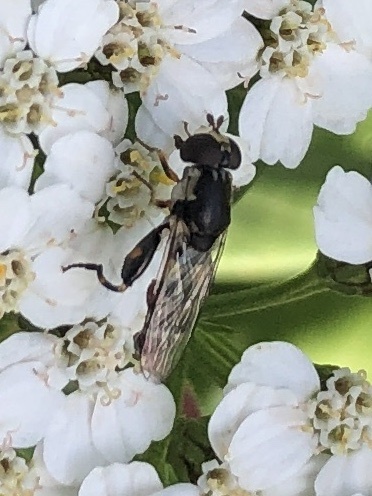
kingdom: Animalia
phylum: Arthropoda
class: Insecta
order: Diptera
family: Syrphidae
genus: Syritta
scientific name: Syritta pipiens
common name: Hover fly
